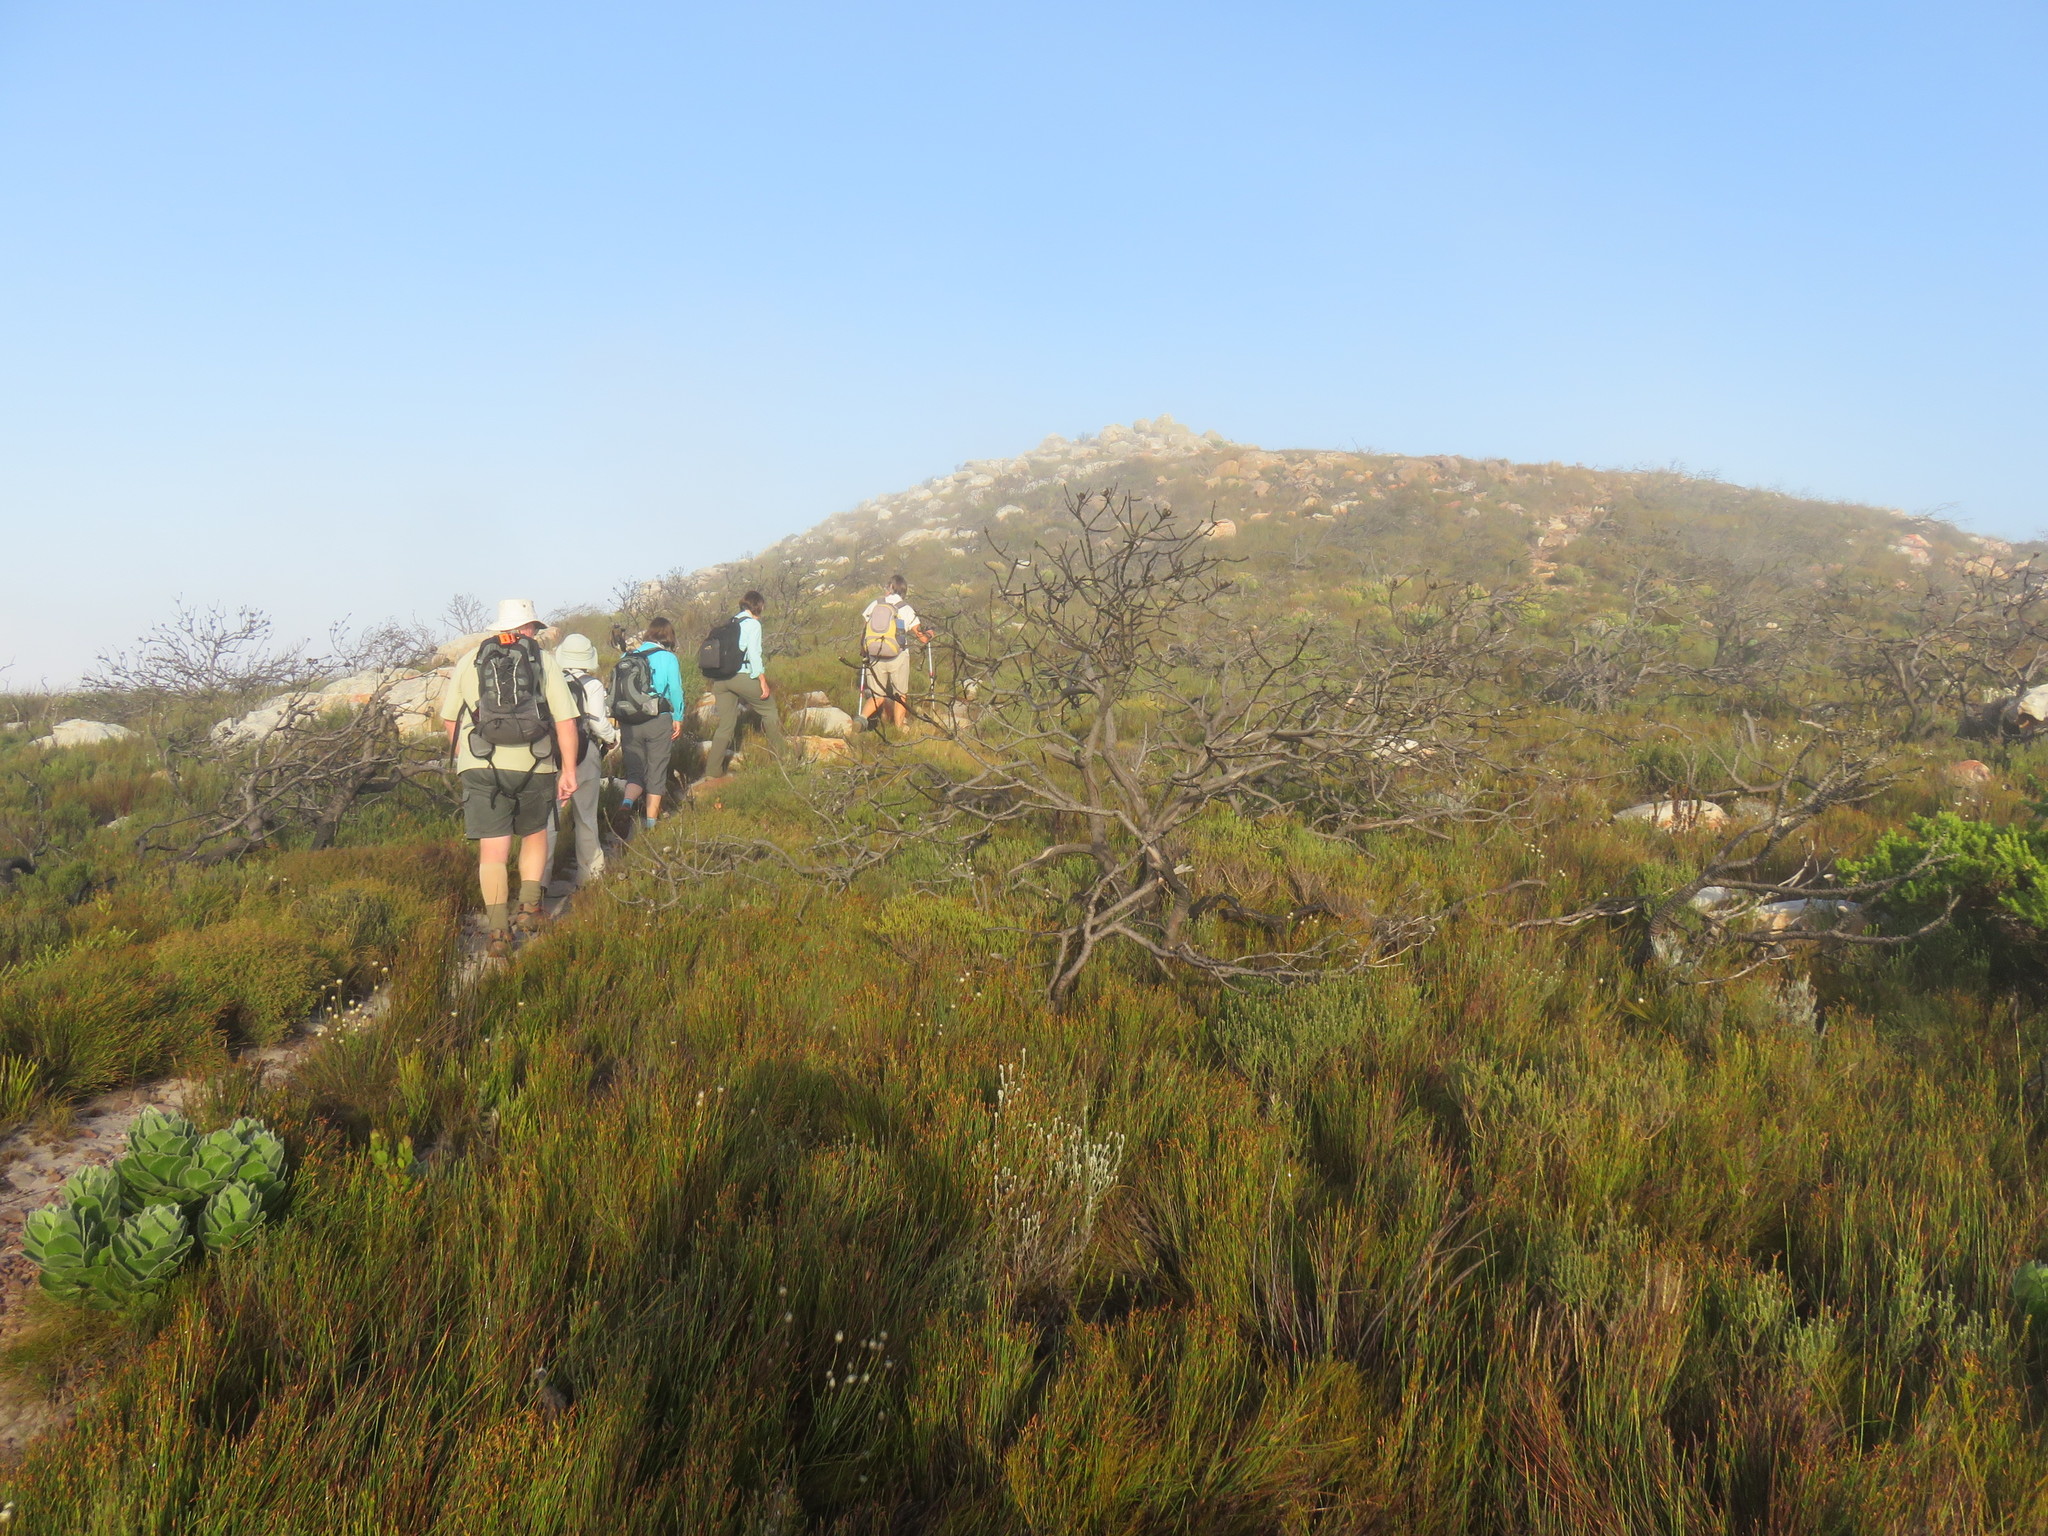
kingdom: Plantae
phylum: Tracheophyta
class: Magnoliopsida
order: Proteales
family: Proteaceae
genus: Leucadendron
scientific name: Leucadendron laureolum
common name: Golden sunshinebush
